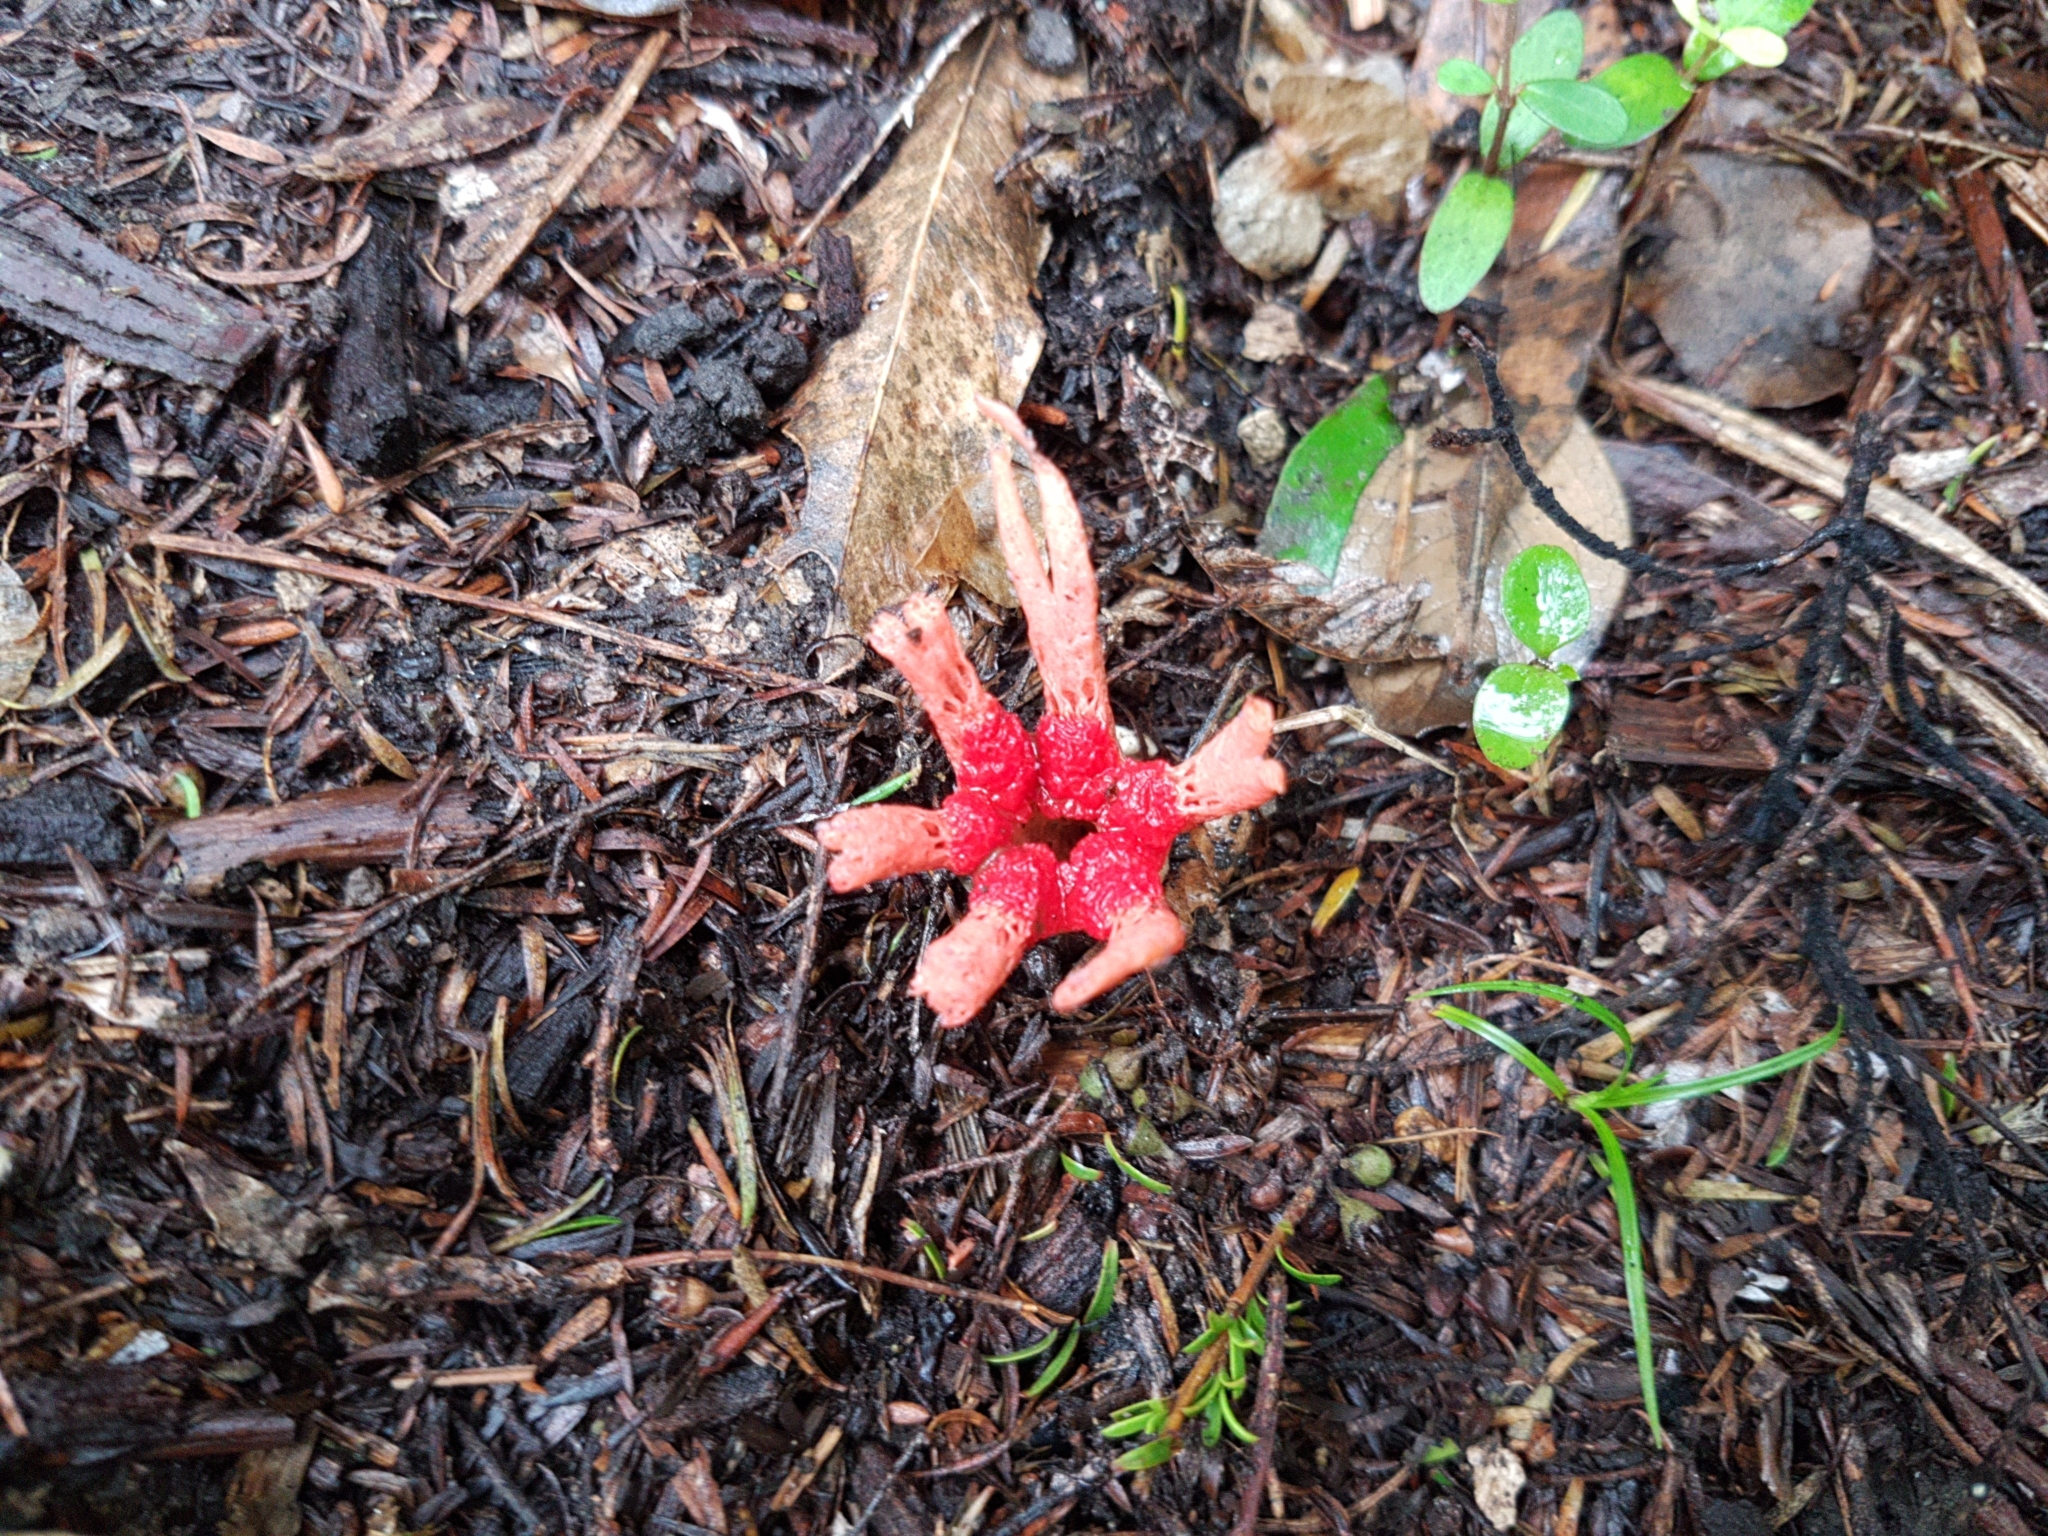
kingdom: Fungi
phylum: Basidiomycota
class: Agaricomycetes
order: Phallales
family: Phallaceae
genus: Aseroe
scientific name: Aseroe rubra
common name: Starfish fungus
